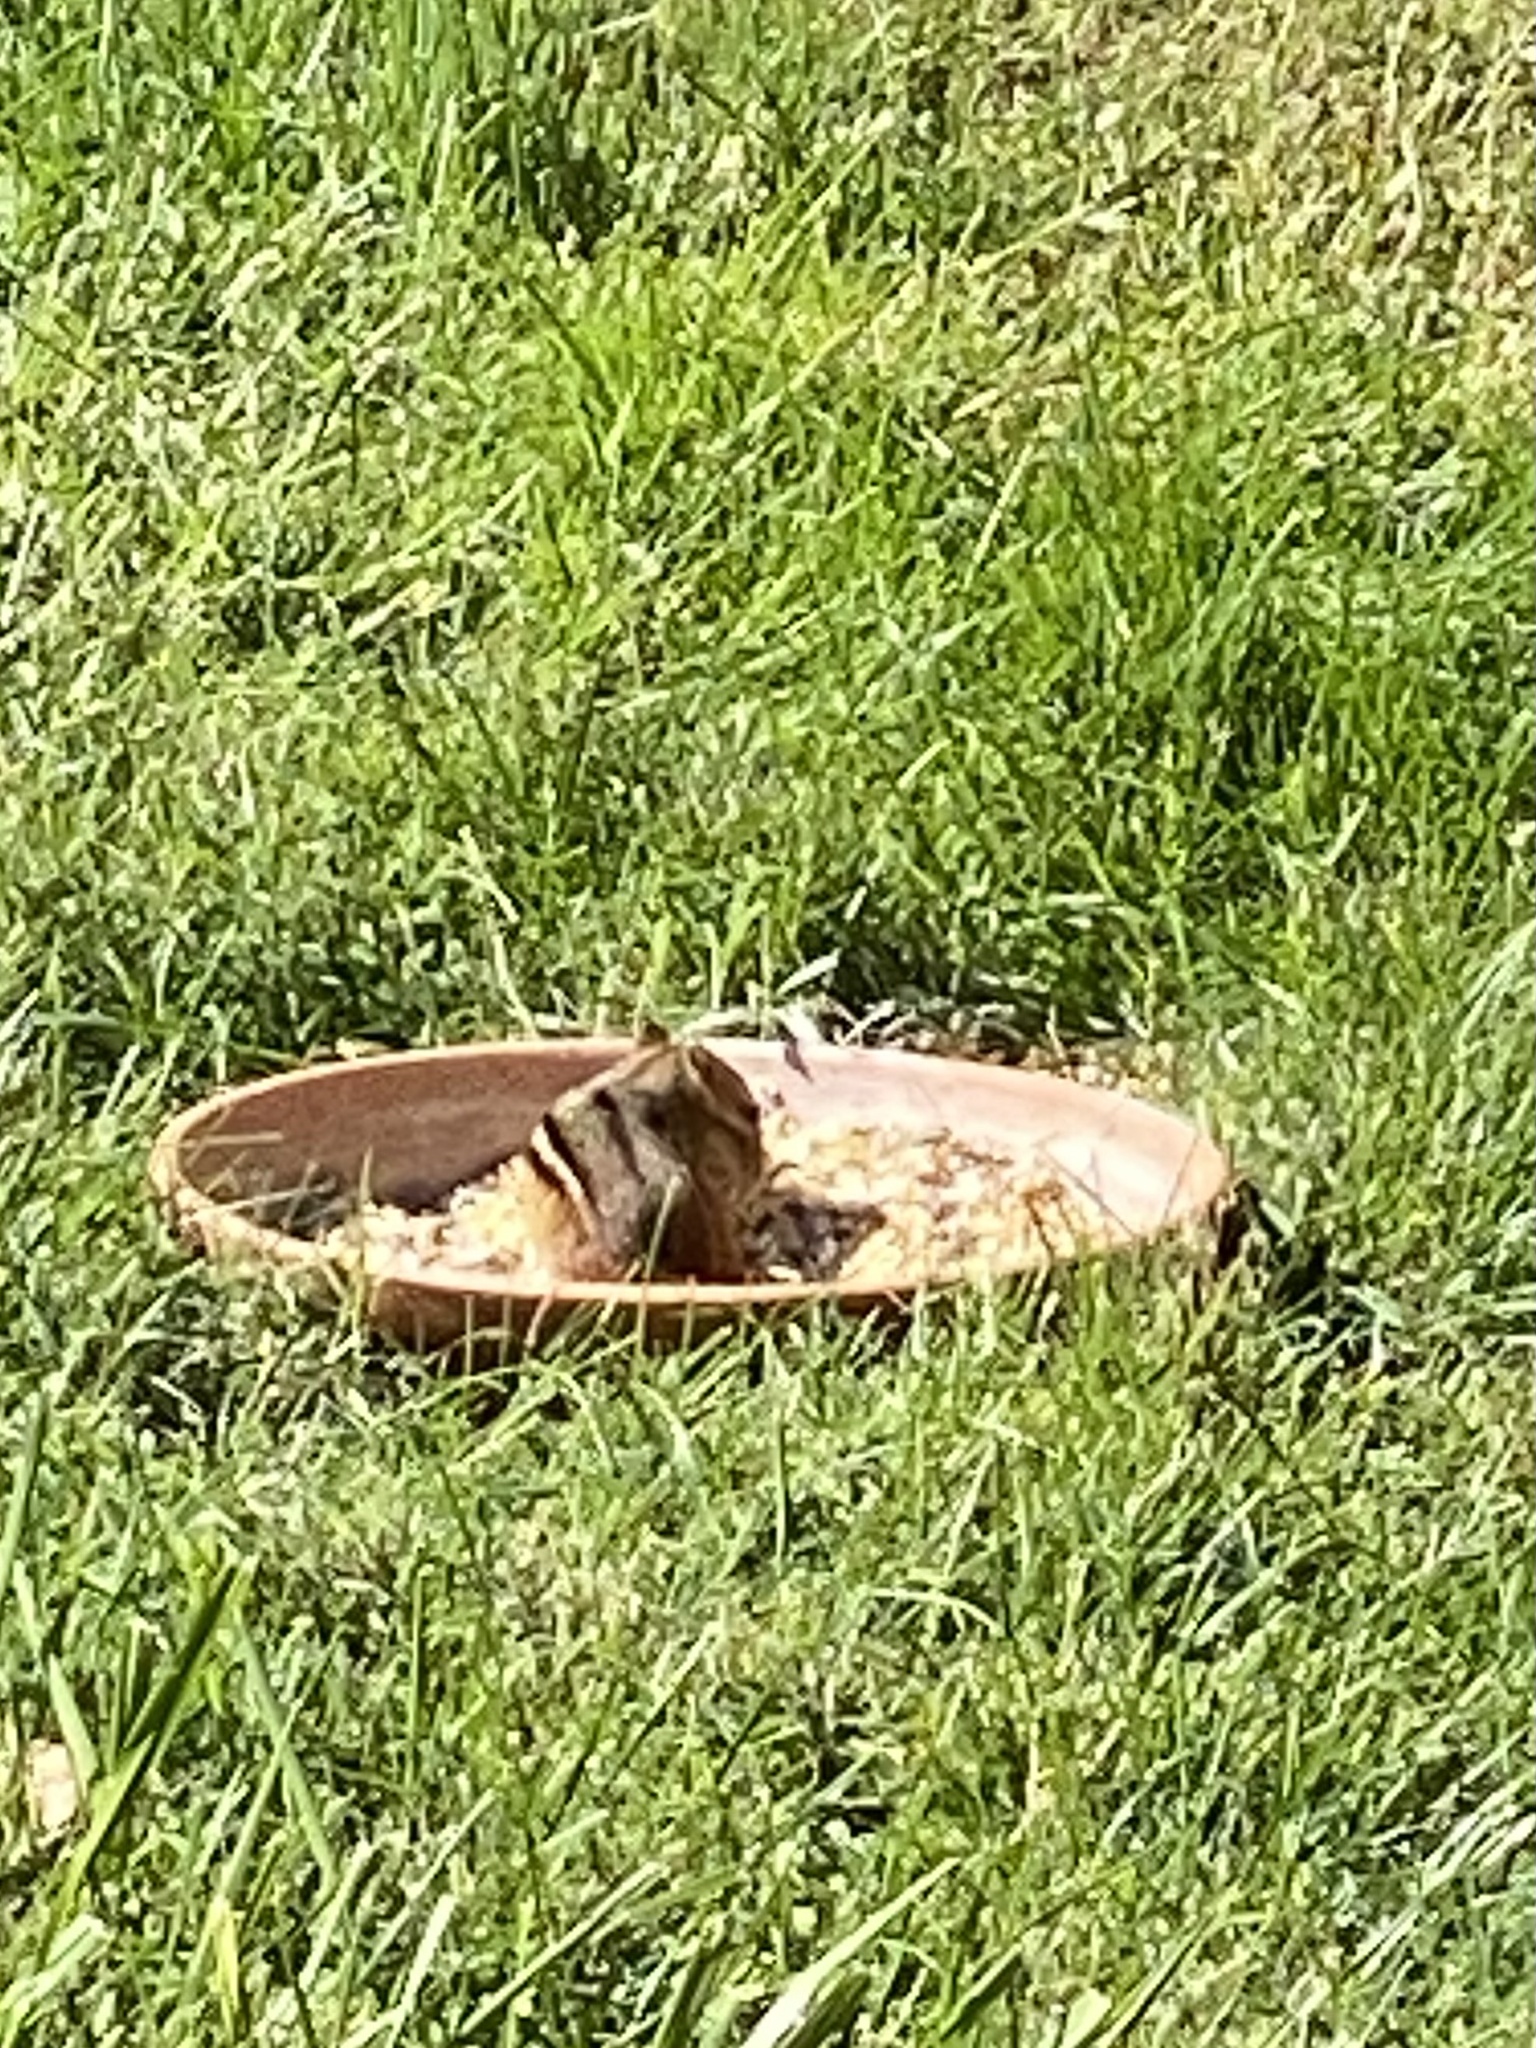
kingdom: Animalia
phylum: Chordata
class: Mammalia
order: Rodentia
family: Sciuridae
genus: Tamias
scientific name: Tamias striatus
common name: Eastern chipmunk
